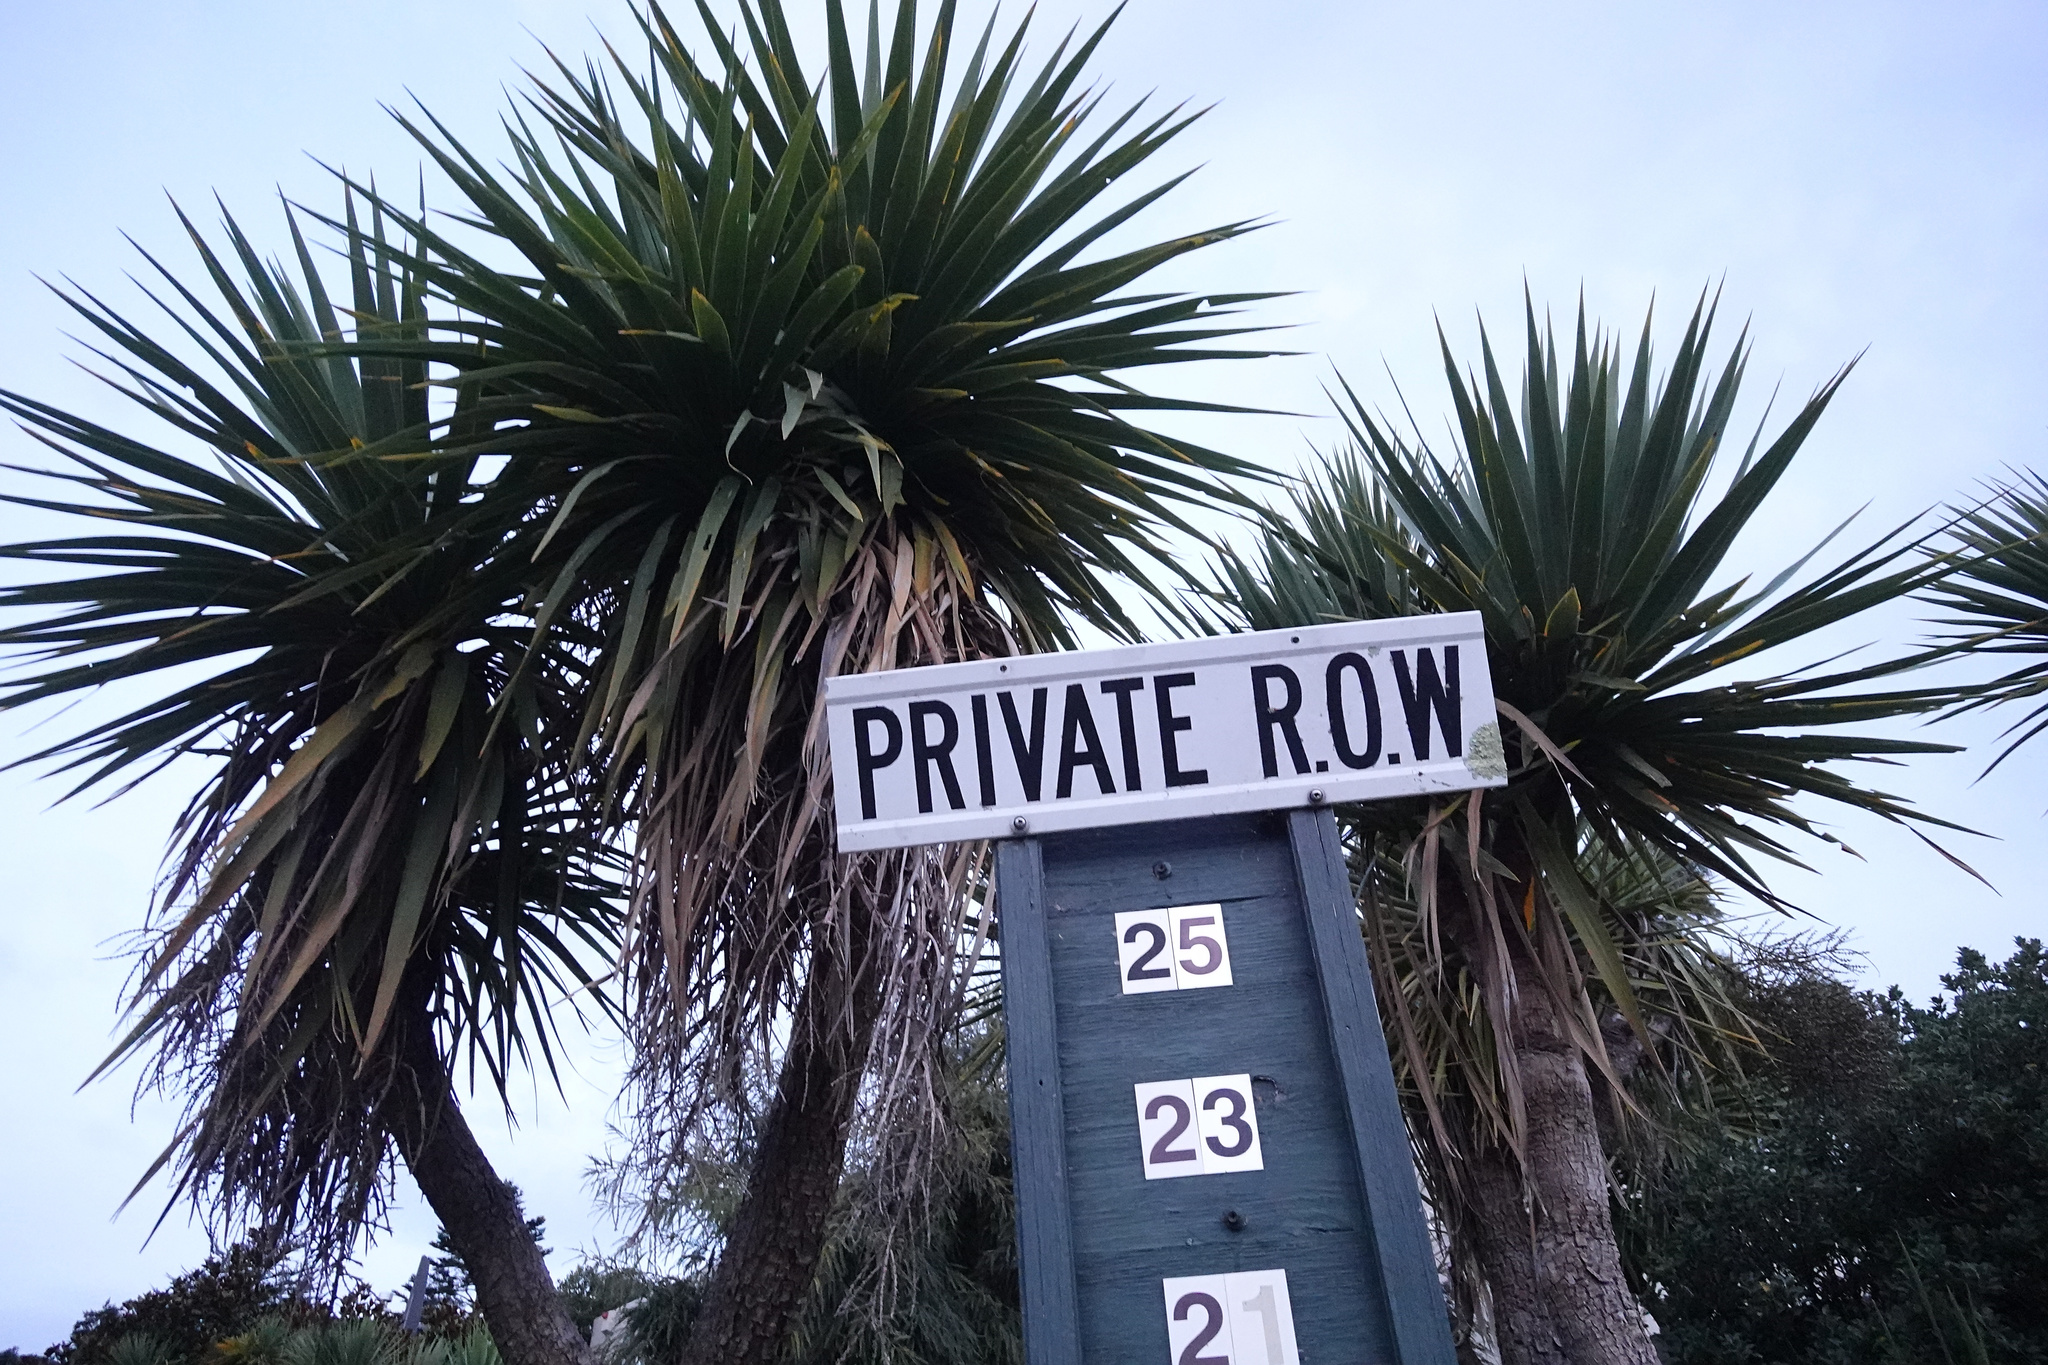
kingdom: Plantae
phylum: Tracheophyta
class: Liliopsida
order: Asparagales
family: Asparagaceae
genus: Cordyline
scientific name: Cordyline australis
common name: Cabbage-palm
